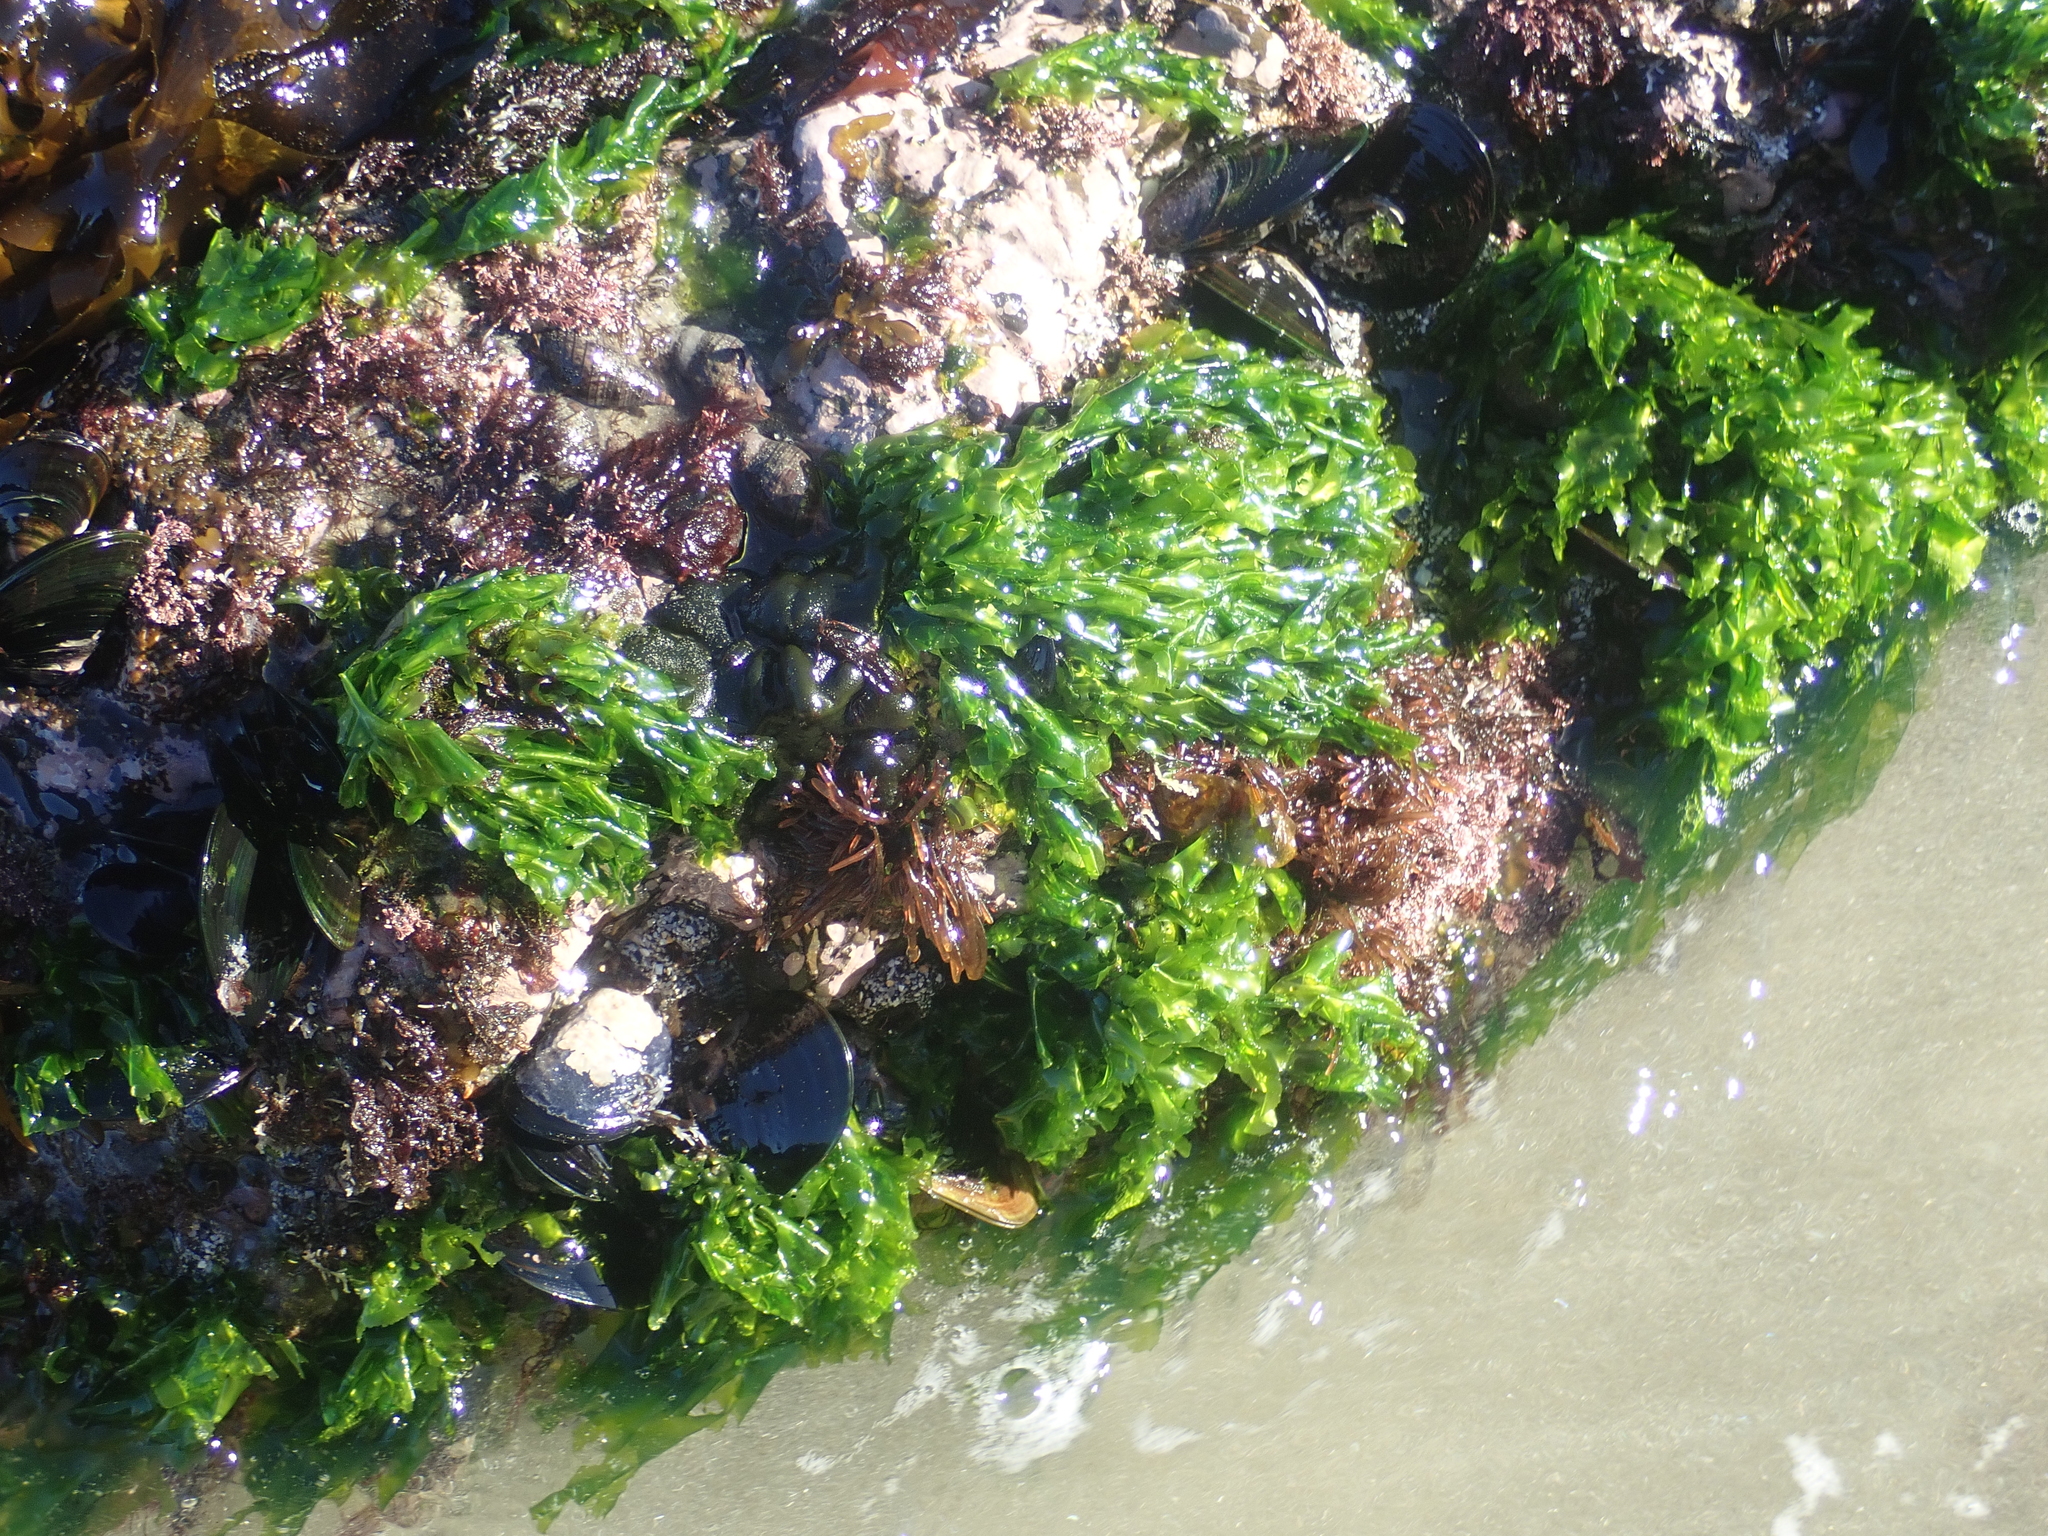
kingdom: Plantae
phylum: Chlorophyta
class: Ulvophyceae
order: Ulvales
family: Ulvaceae
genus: Ulva
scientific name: Ulva
